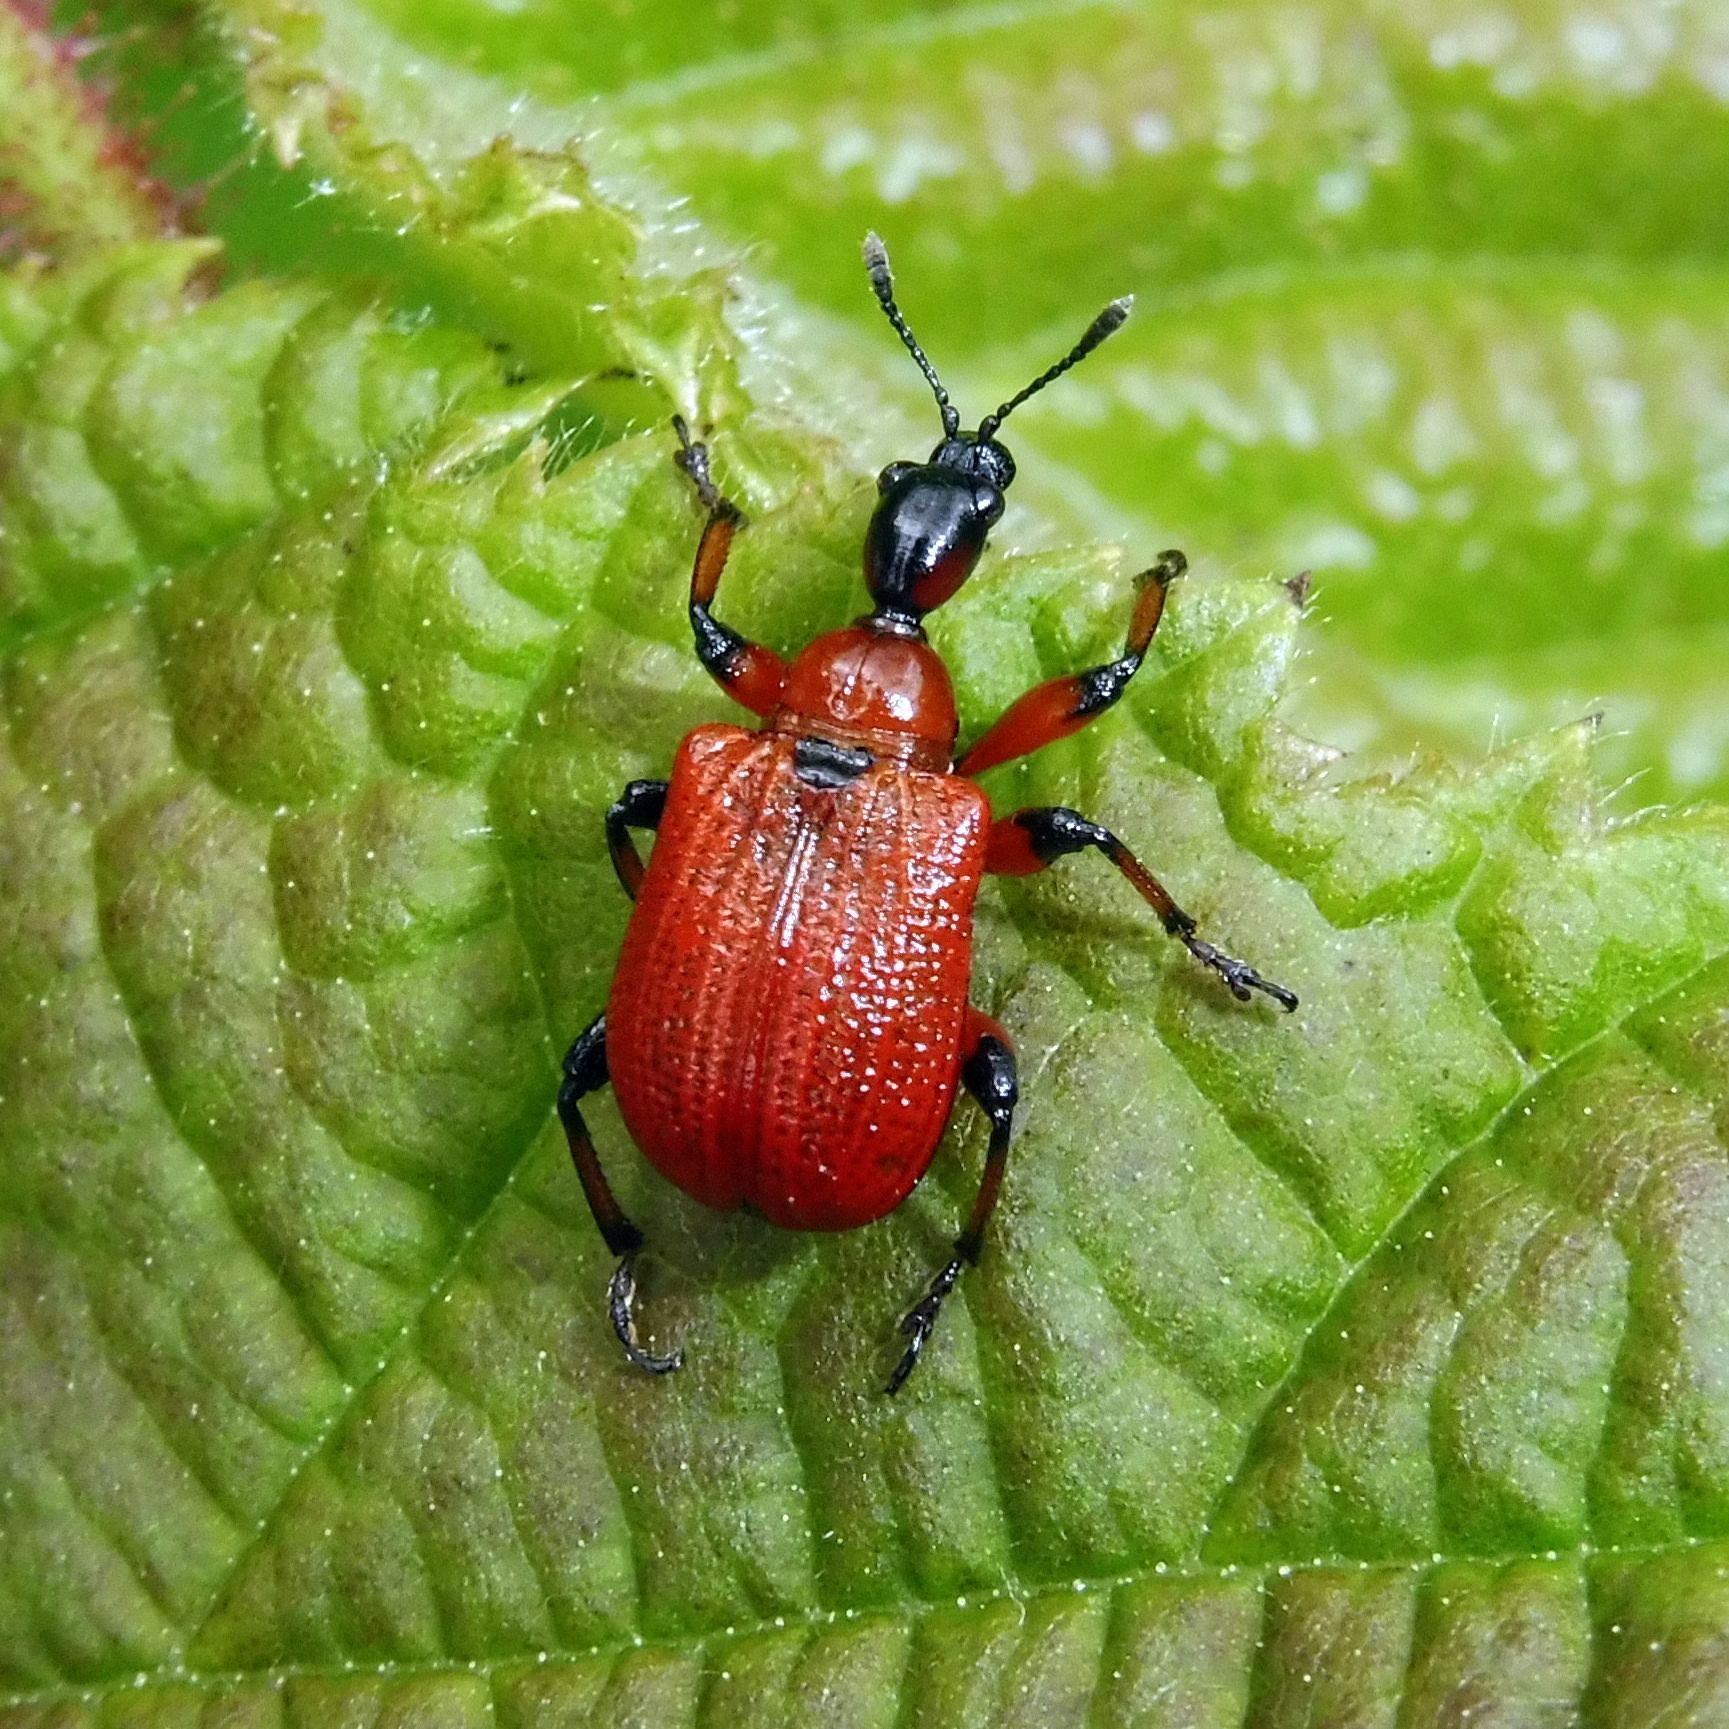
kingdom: Animalia
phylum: Arthropoda
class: Insecta
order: Coleoptera
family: Attelabidae
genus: Apoderus
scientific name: Apoderus coryli
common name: Hazel leaf roller
